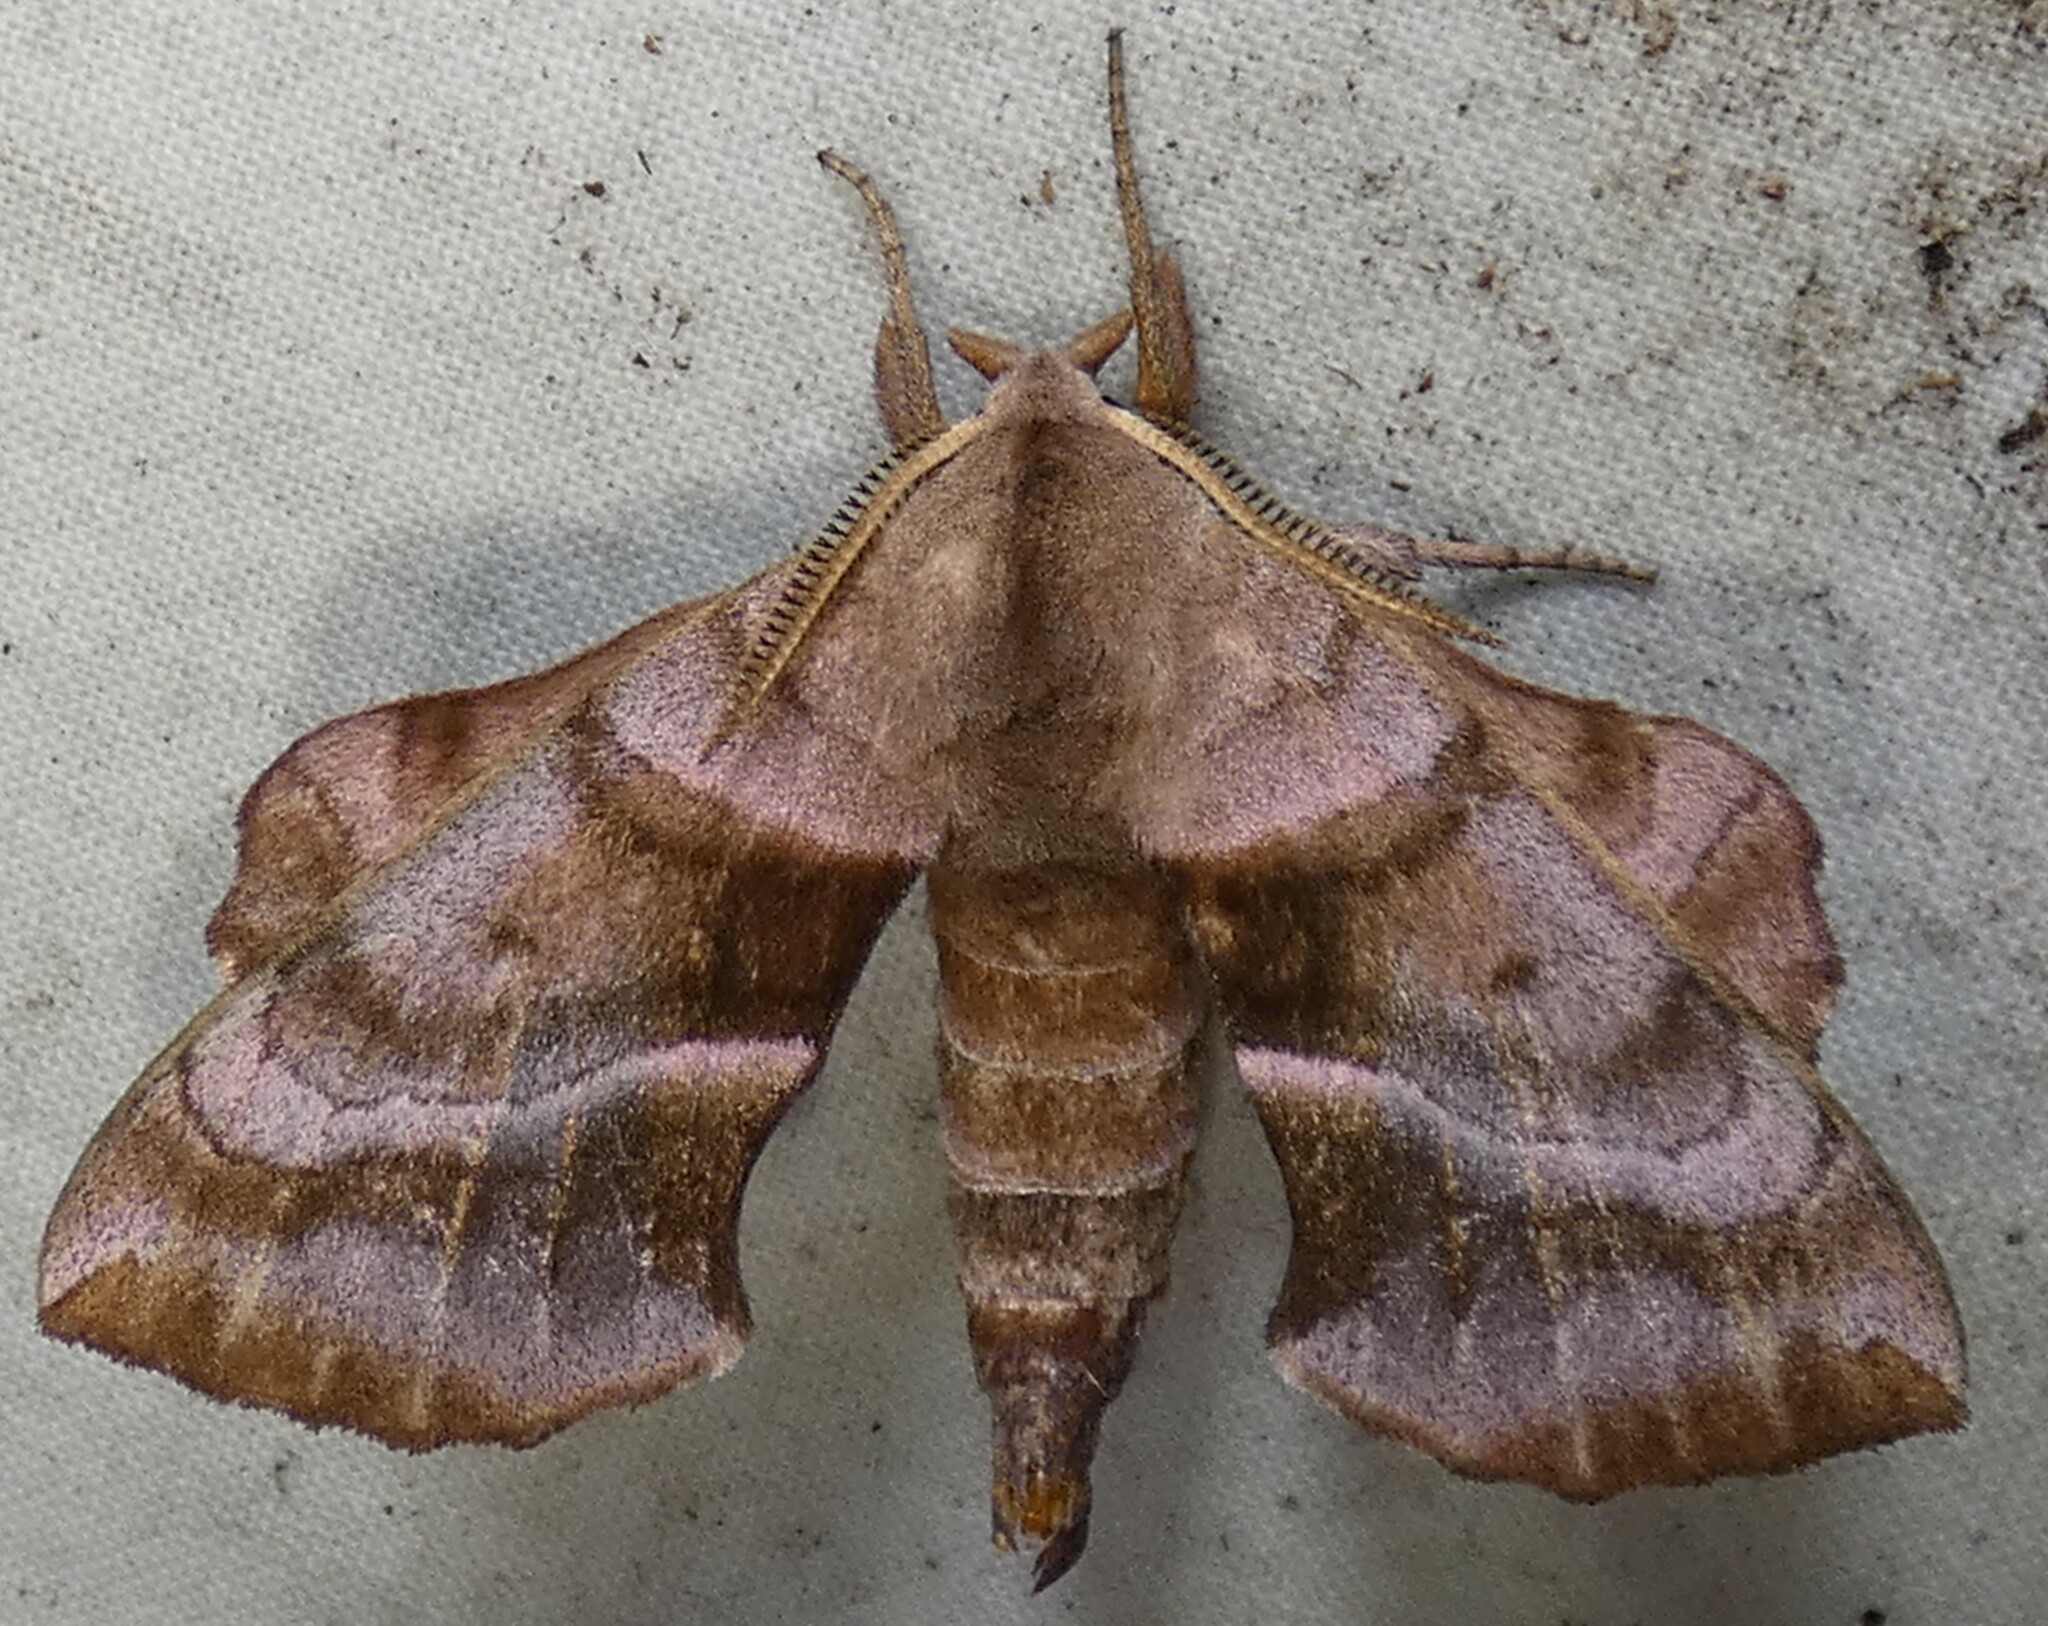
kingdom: Animalia
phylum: Arthropoda
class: Insecta
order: Lepidoptera
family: Sphingidae
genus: Amorpha
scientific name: Amorpha juglandis
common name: Walnut sphinx
